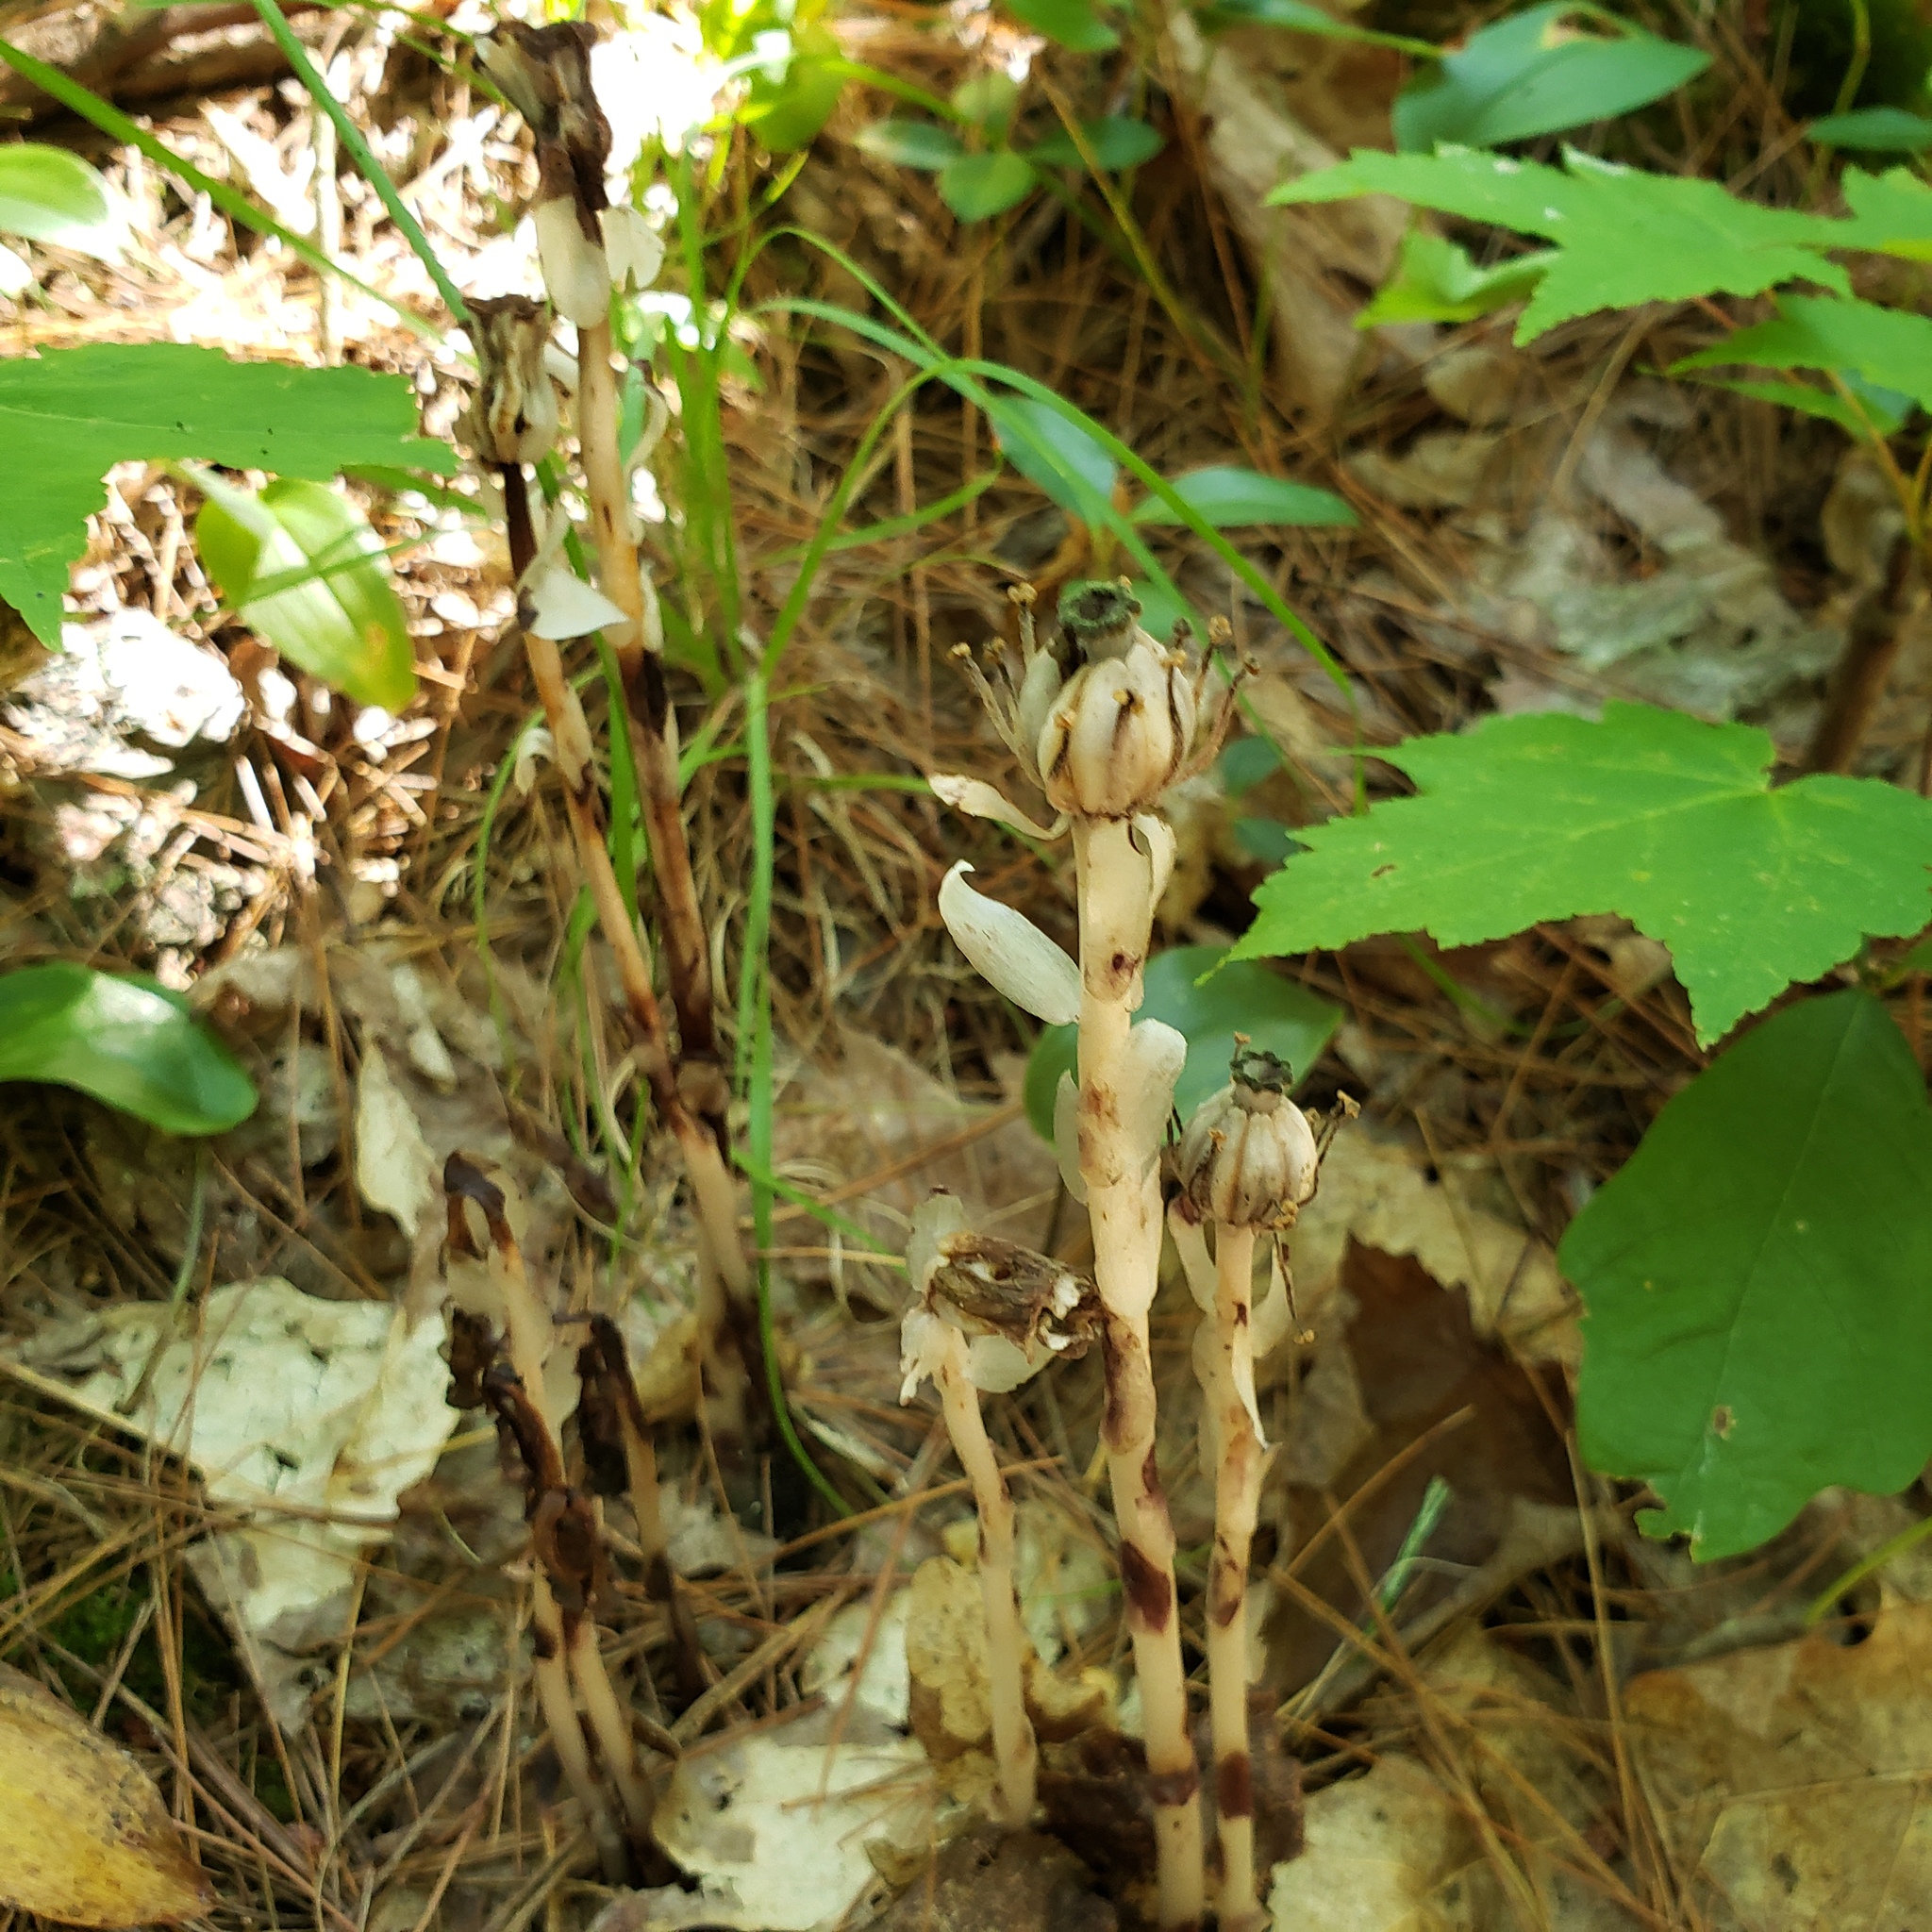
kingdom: Plantae
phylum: Tracheophyta
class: Magnoliopsida
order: Ericales
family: Ericaceae
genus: Monotropa
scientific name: Monotropa uniflora
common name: Convulsion root
